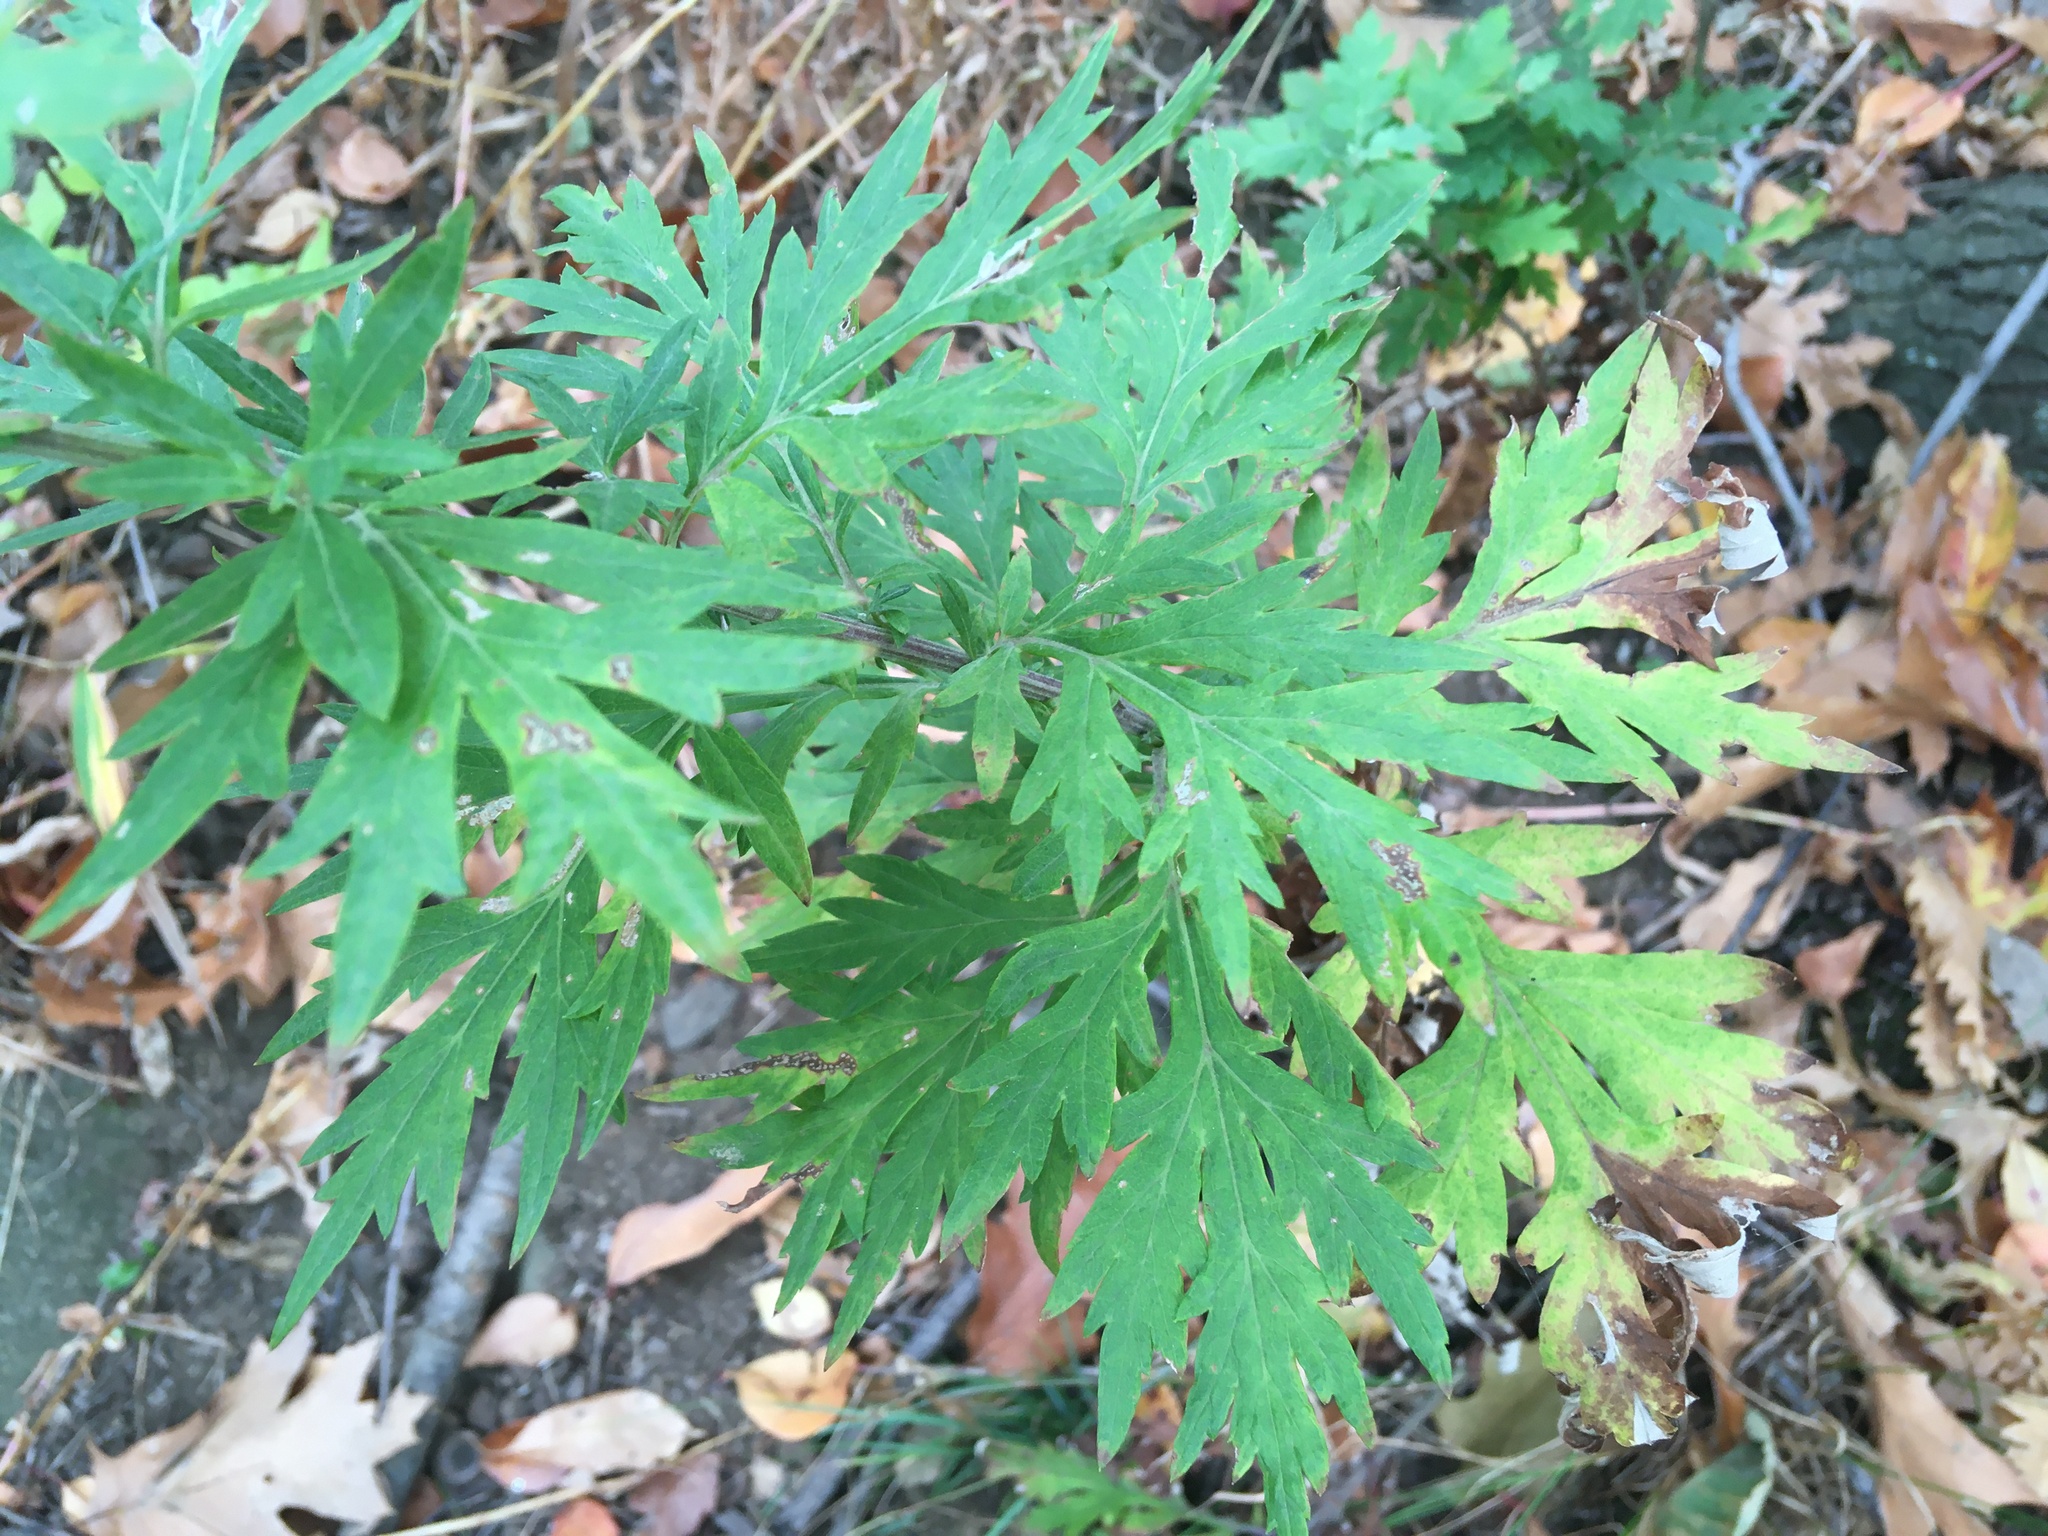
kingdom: Plantae
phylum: Tracheophyta
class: Magnoliopsida
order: Asterales
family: Asteraceae
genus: Artemisia
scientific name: Artemisia vulgaris
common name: Mugwort
